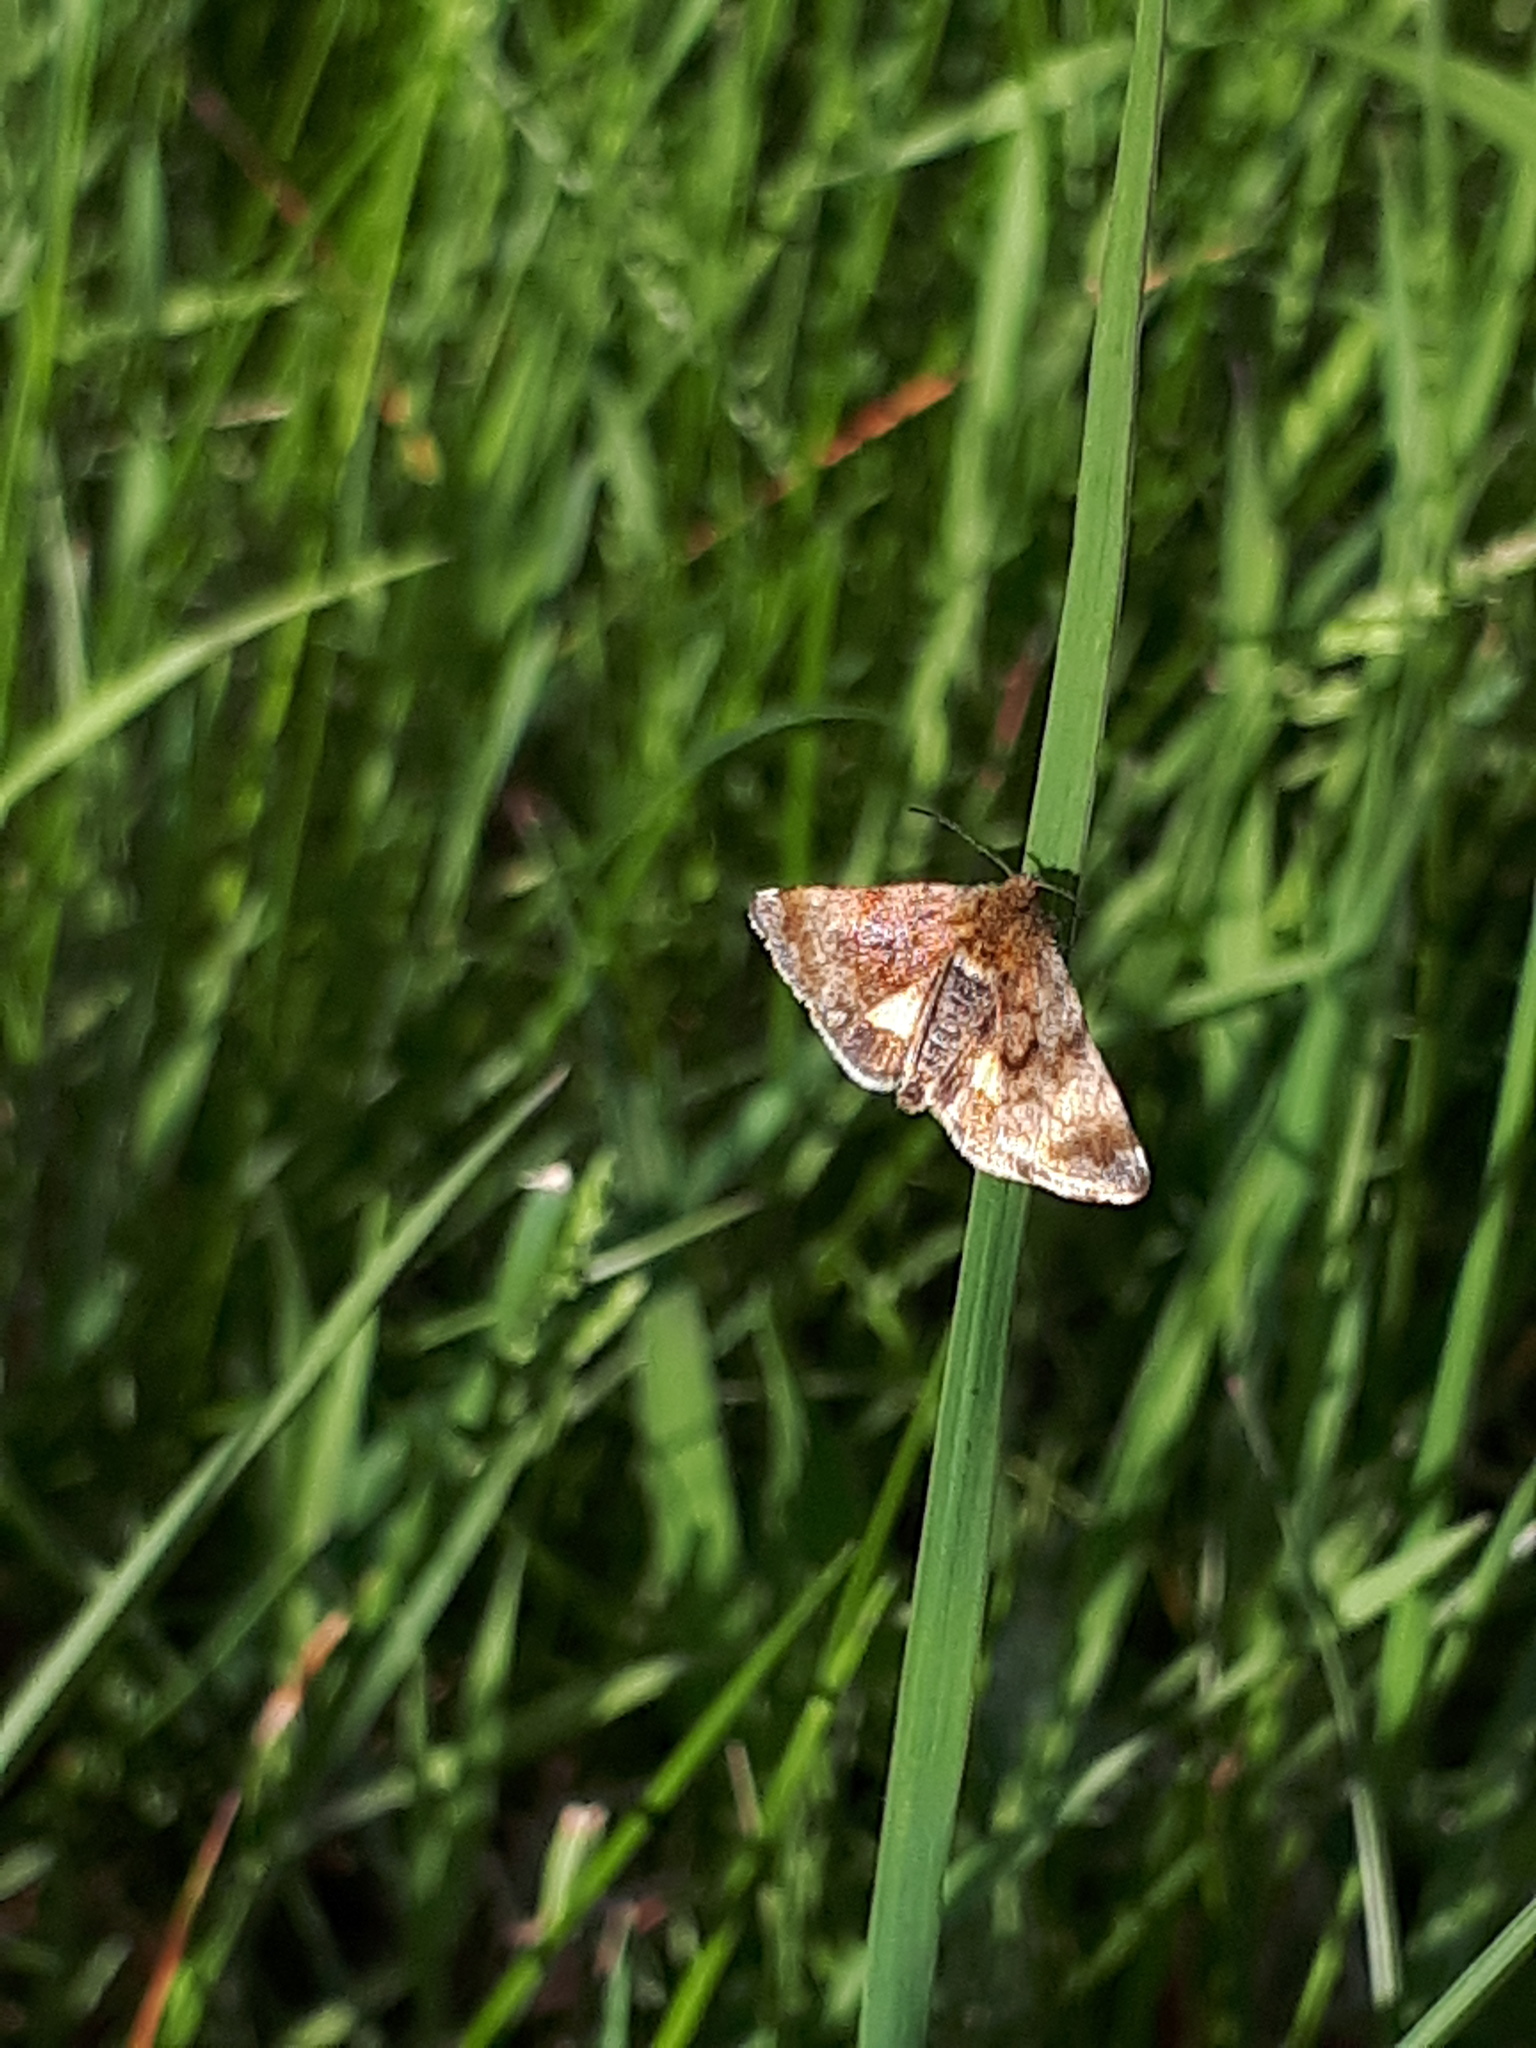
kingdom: Animalia
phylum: Arthropoda
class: Insecta
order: Lepidoptera
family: Noctuidae
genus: Panemeria
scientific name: Panemeria tenebrata
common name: Small yellow underwing
